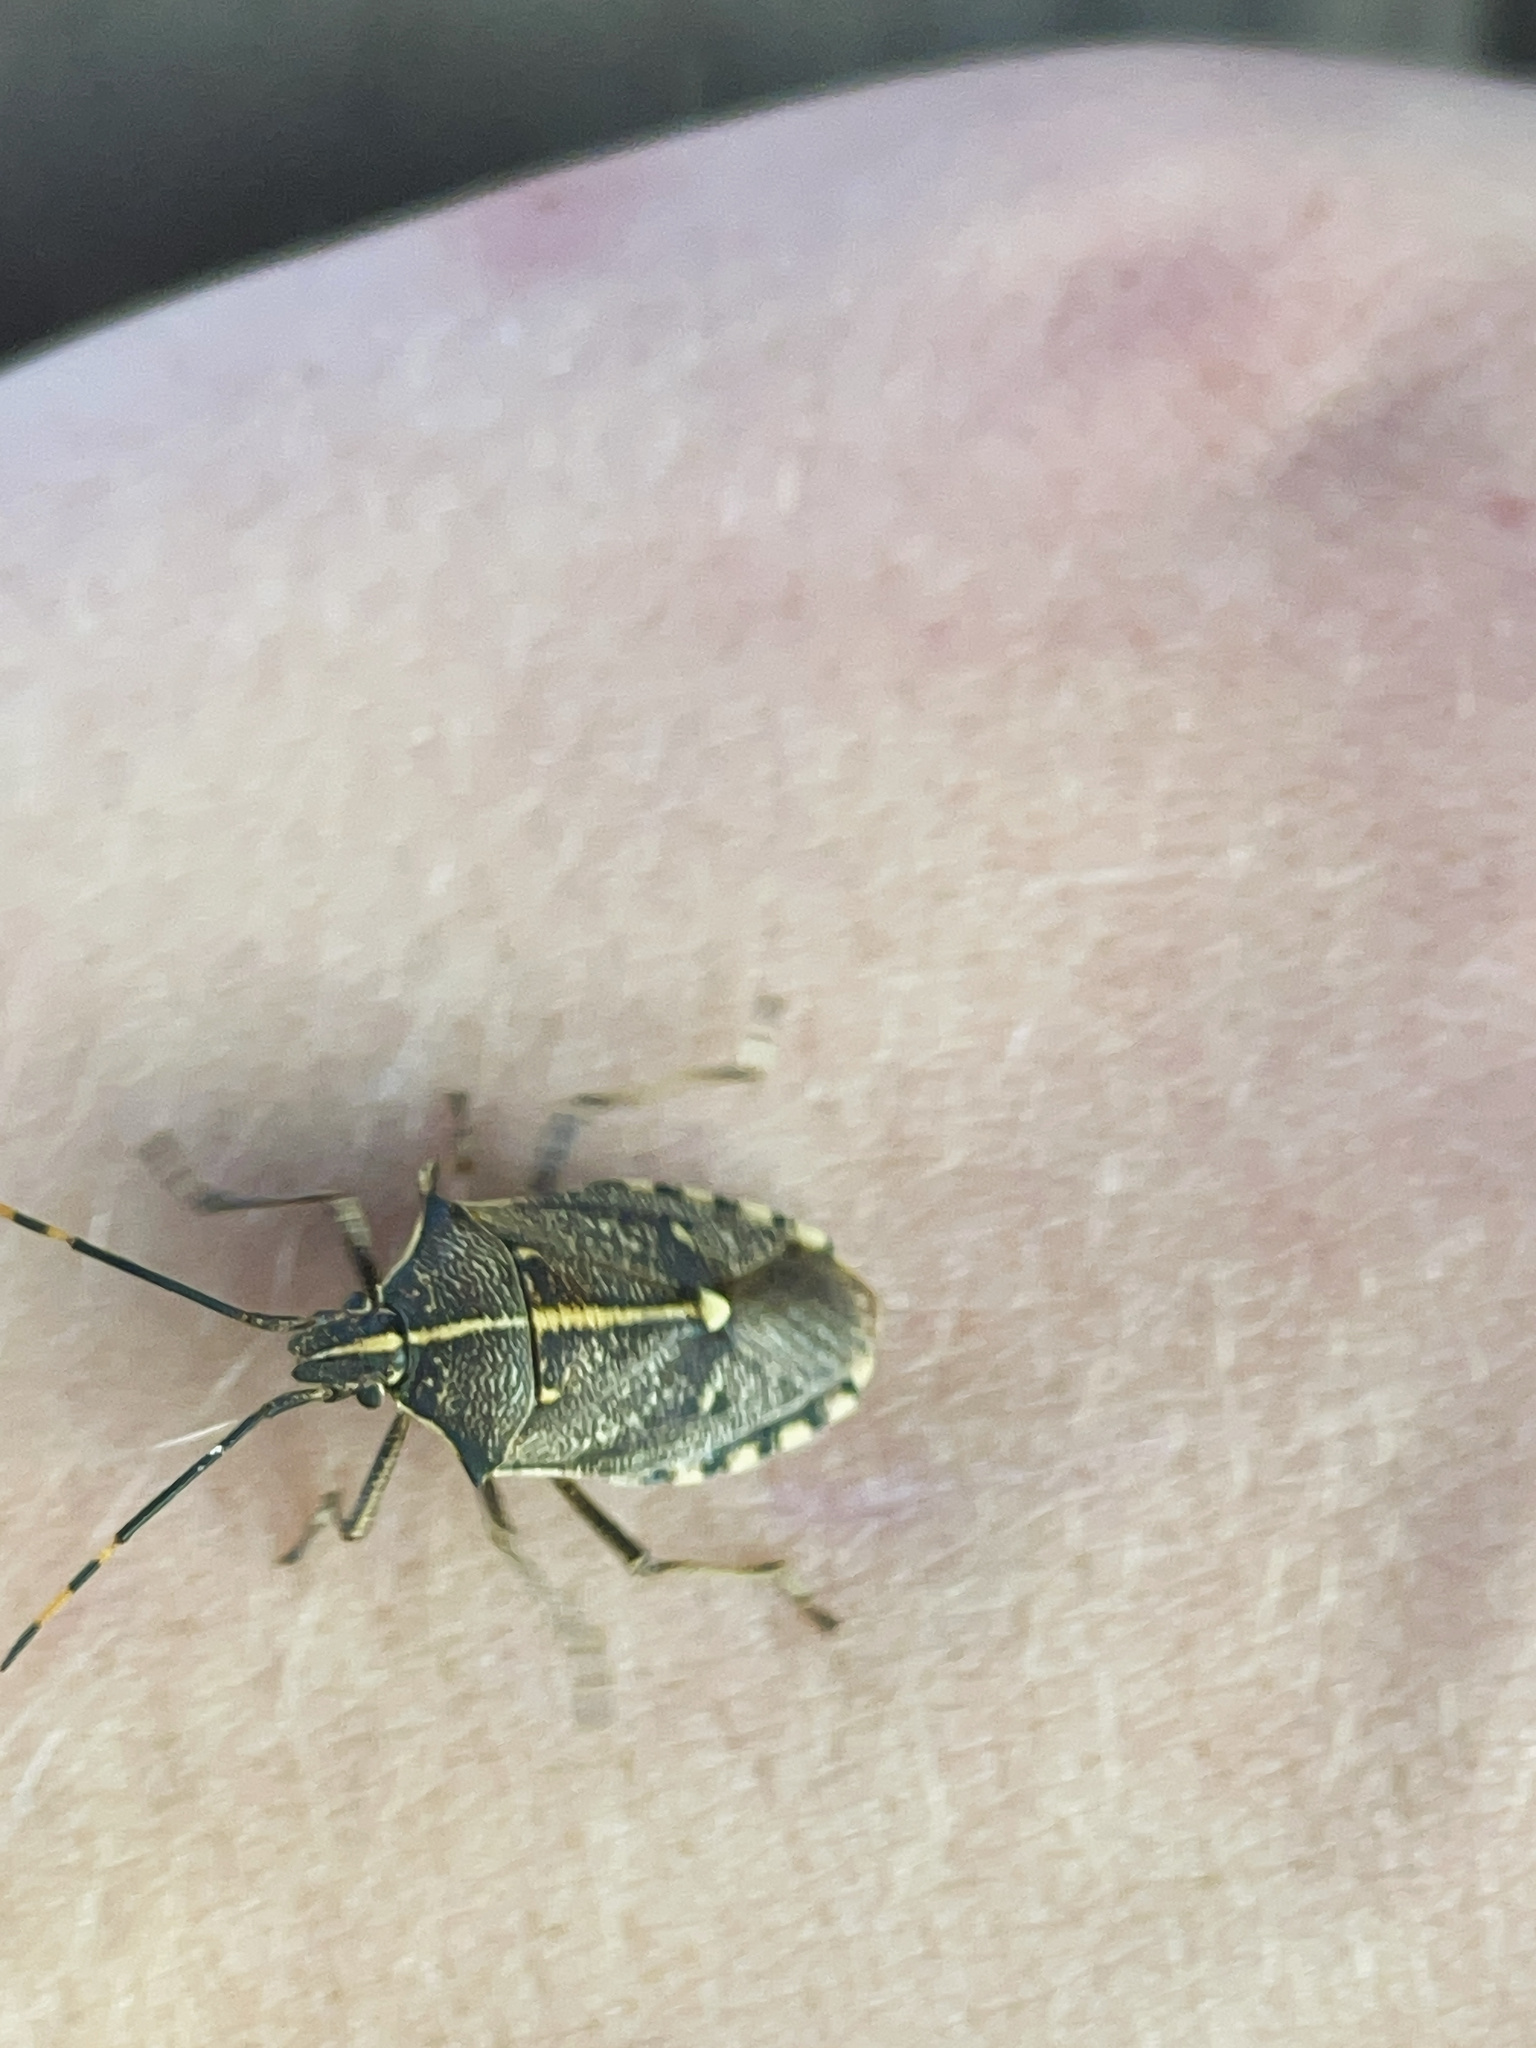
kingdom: Animalia
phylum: Arthropoda
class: Insecta
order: Hemiptera
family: Pentatomidae
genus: Omyta
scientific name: Omyta centrolineata
